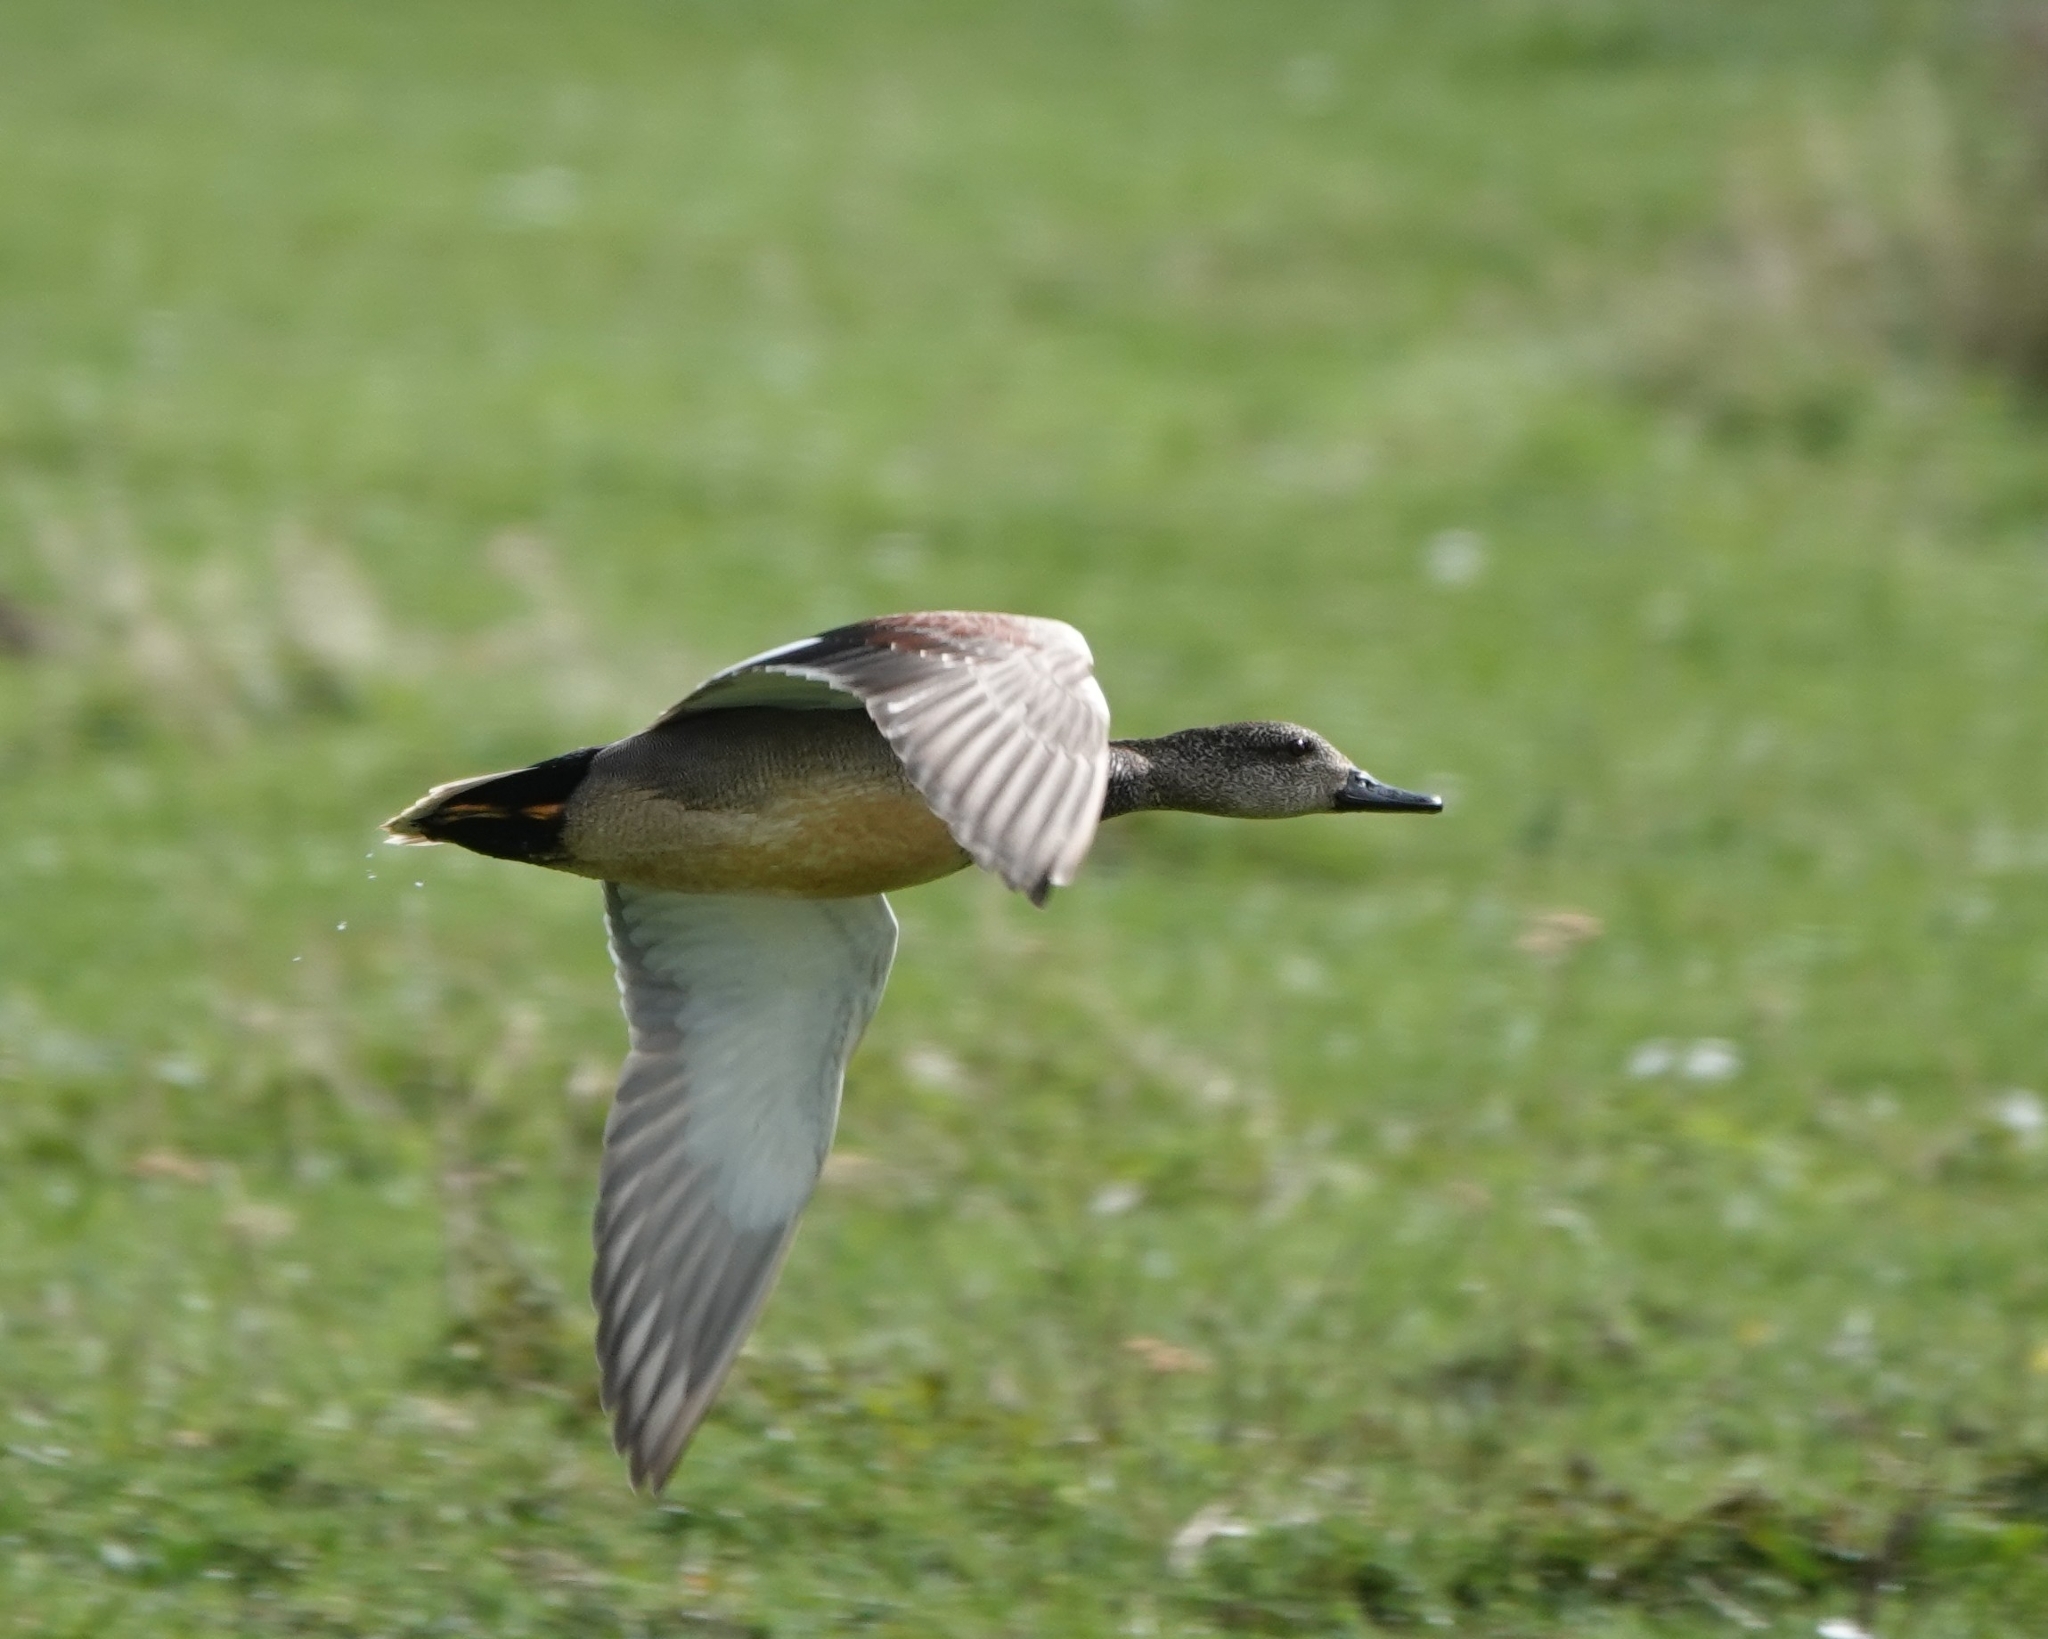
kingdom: Animalia
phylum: Chordata
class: Aves
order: Anseriformes
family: Anatidae
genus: Mareca
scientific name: Mareca strepera
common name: Gadwall
